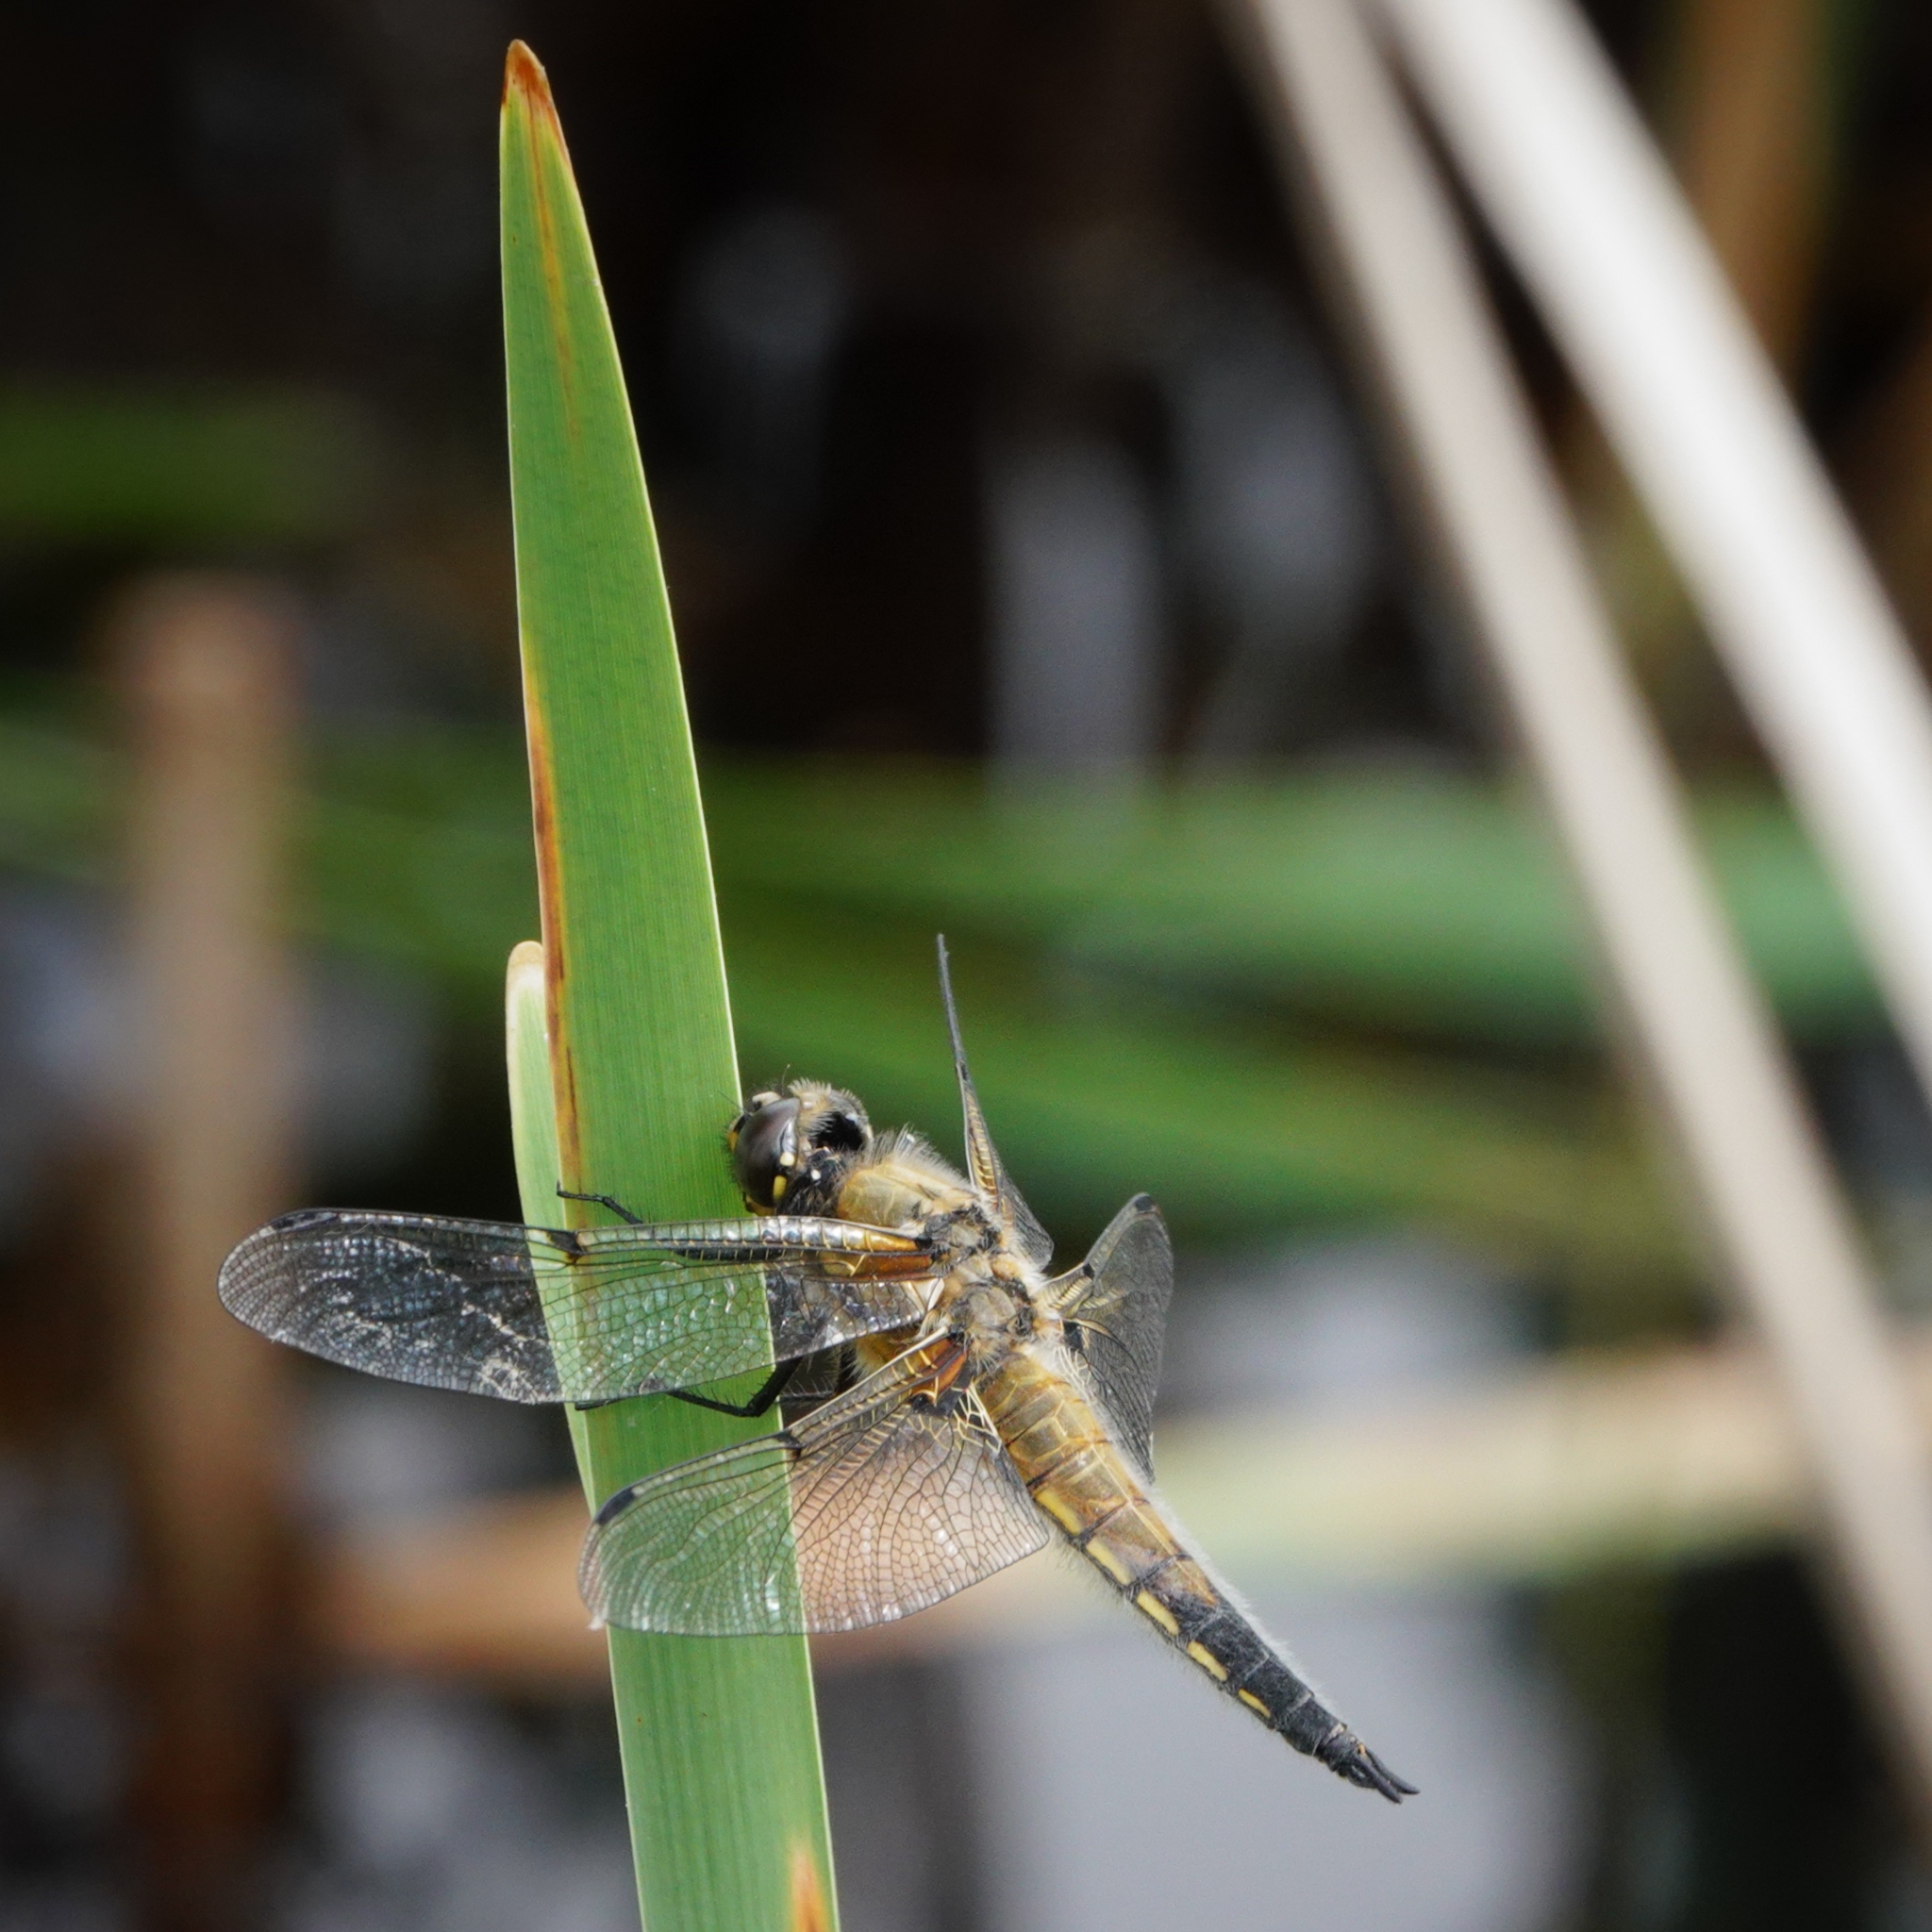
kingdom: Animalia
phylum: Arthropoda
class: Insecta
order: Odonata
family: Libellulidae
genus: Libellula
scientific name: Libellula quadrimaculata
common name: Four-spotted chaser
